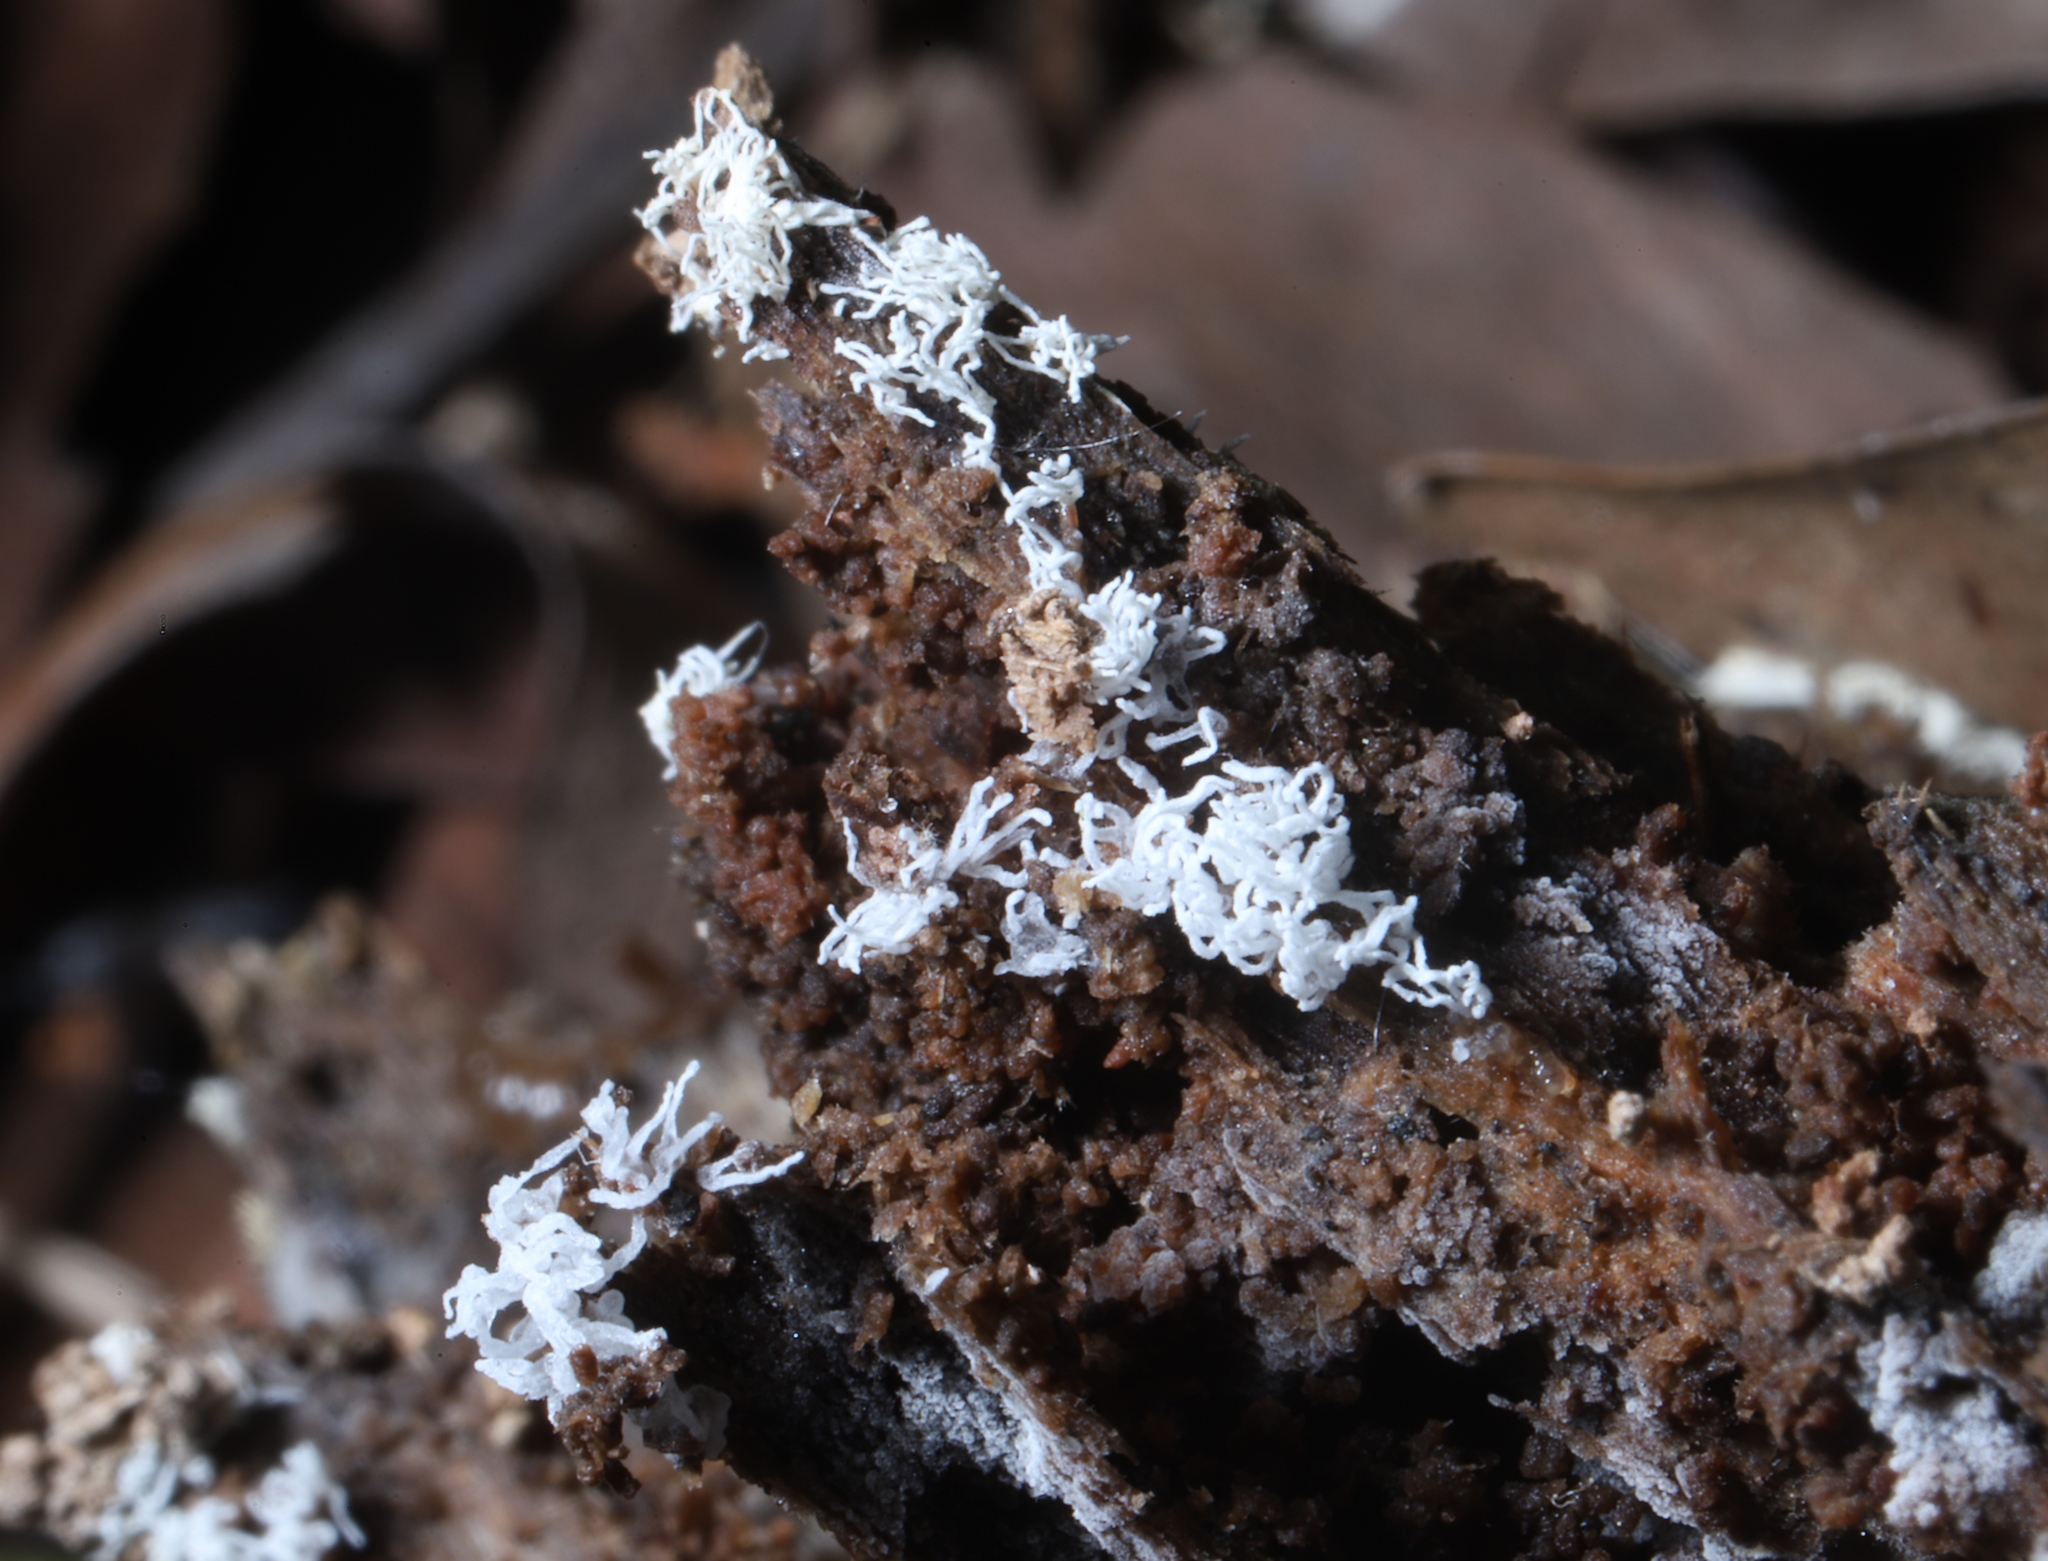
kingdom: Protozoa
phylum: Mycetozoa
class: Protosteliomycetes
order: Ceratiomyxales
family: Ceratiomyxaceae
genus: Ceratiomyxa
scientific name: Ceratiomyxa fruticulosa
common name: Honeycomb coral slime mold
